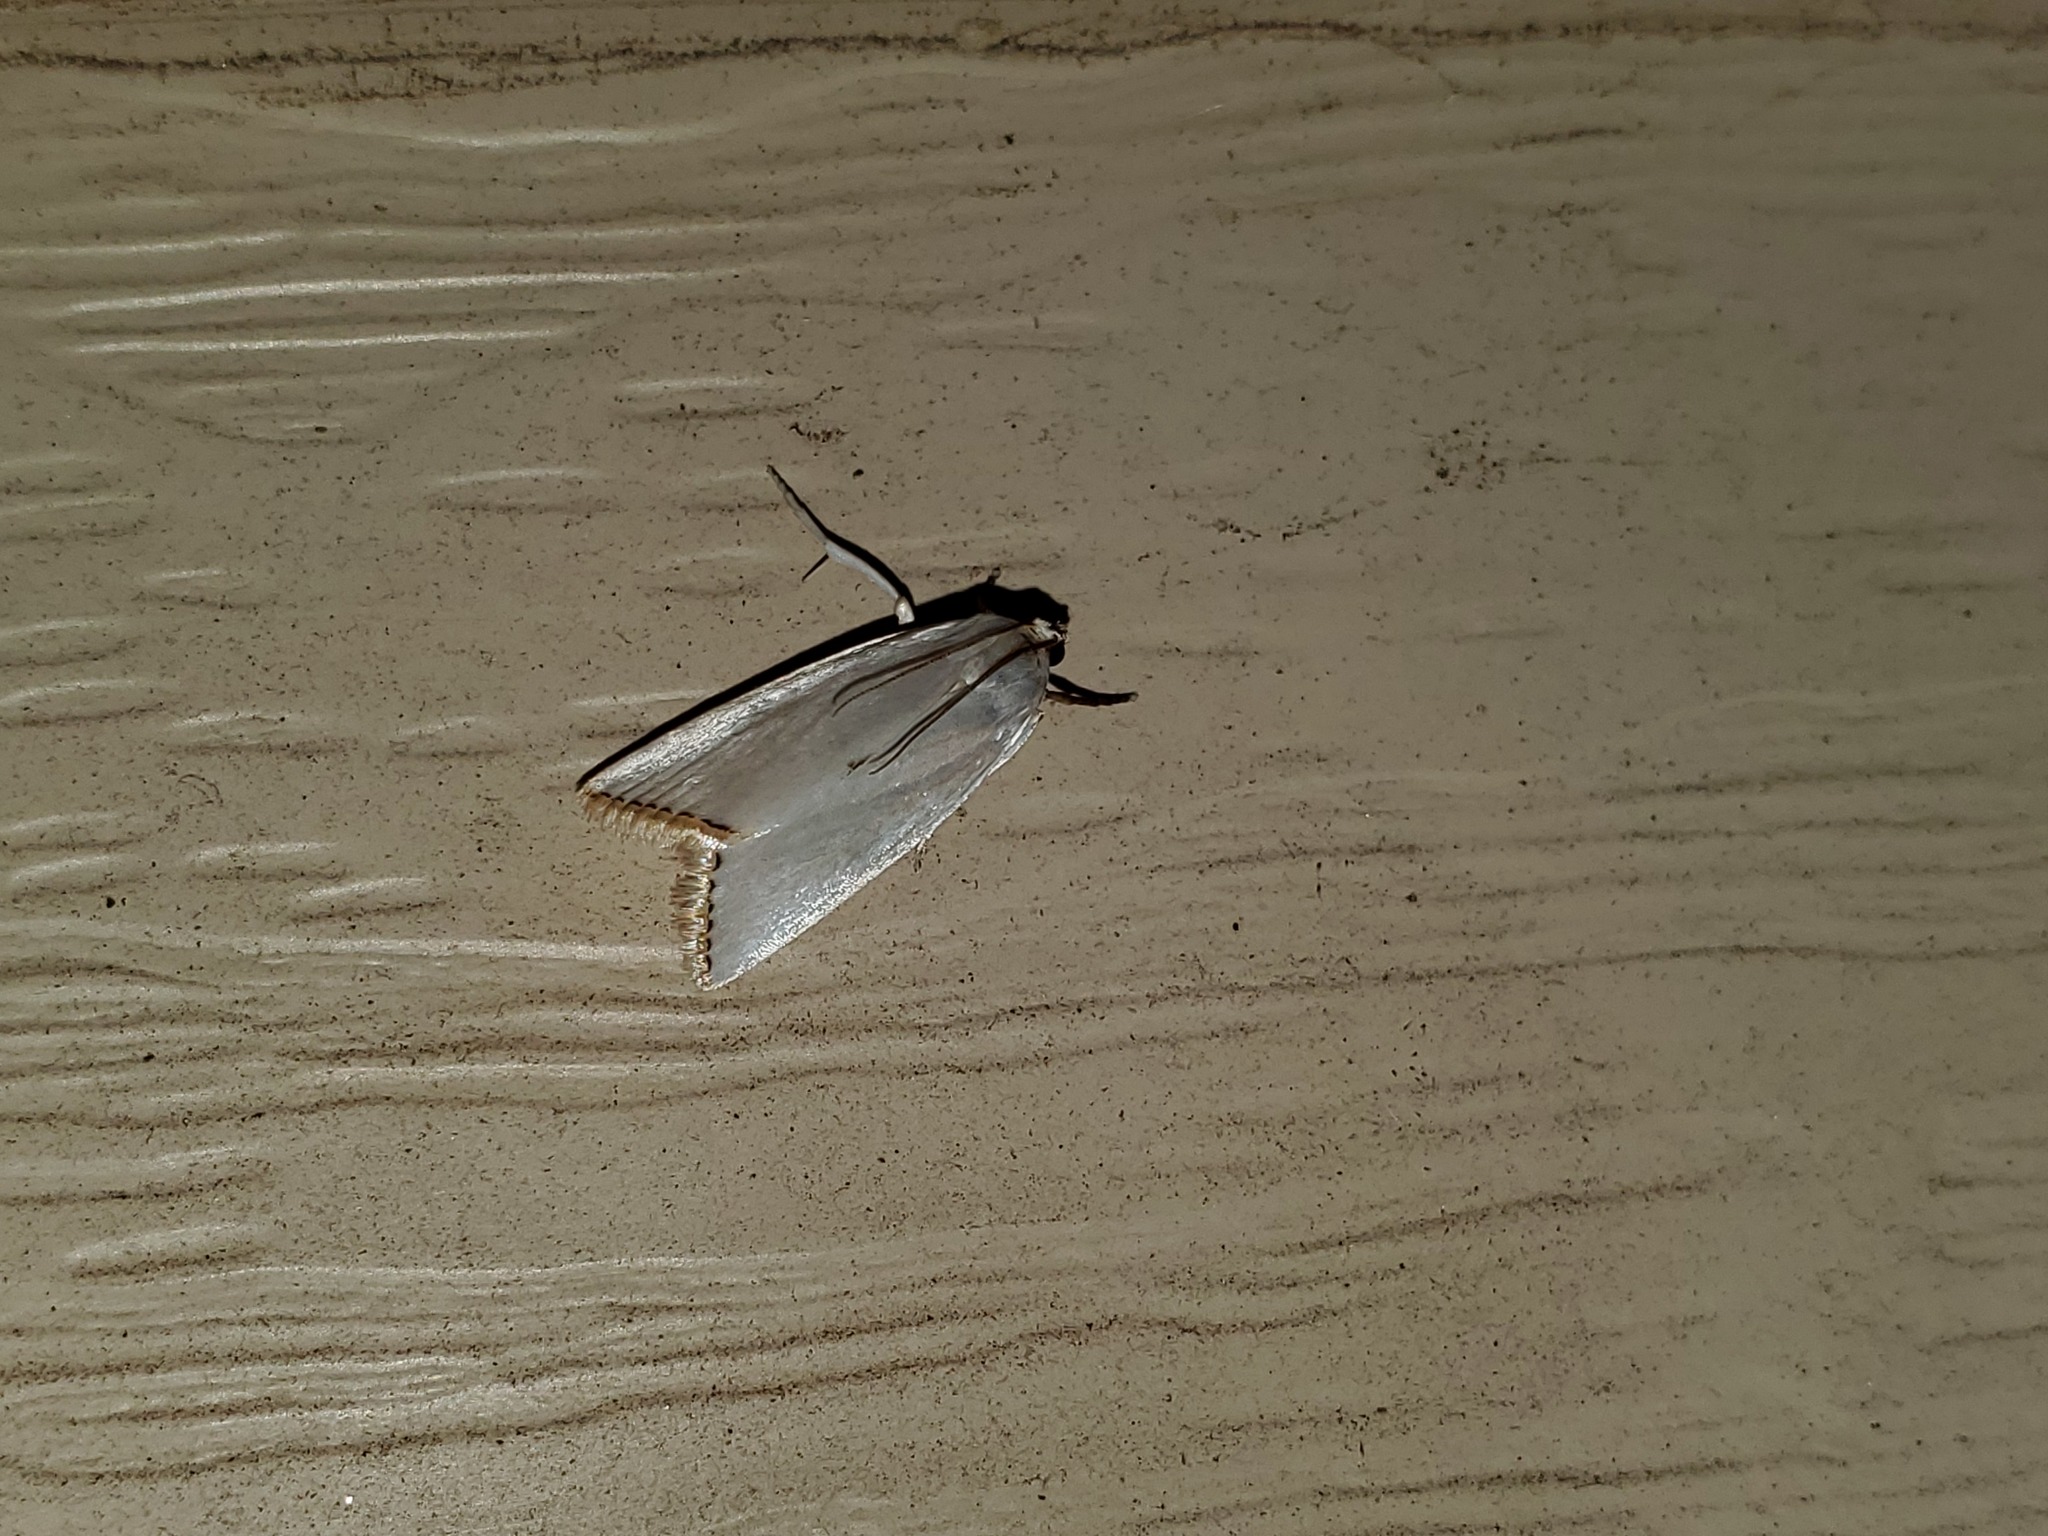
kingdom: Animalia
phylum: Arthropoda
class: Insecta
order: Lepidoptera
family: Crambidae
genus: Argyria
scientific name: Argyria nivalis
